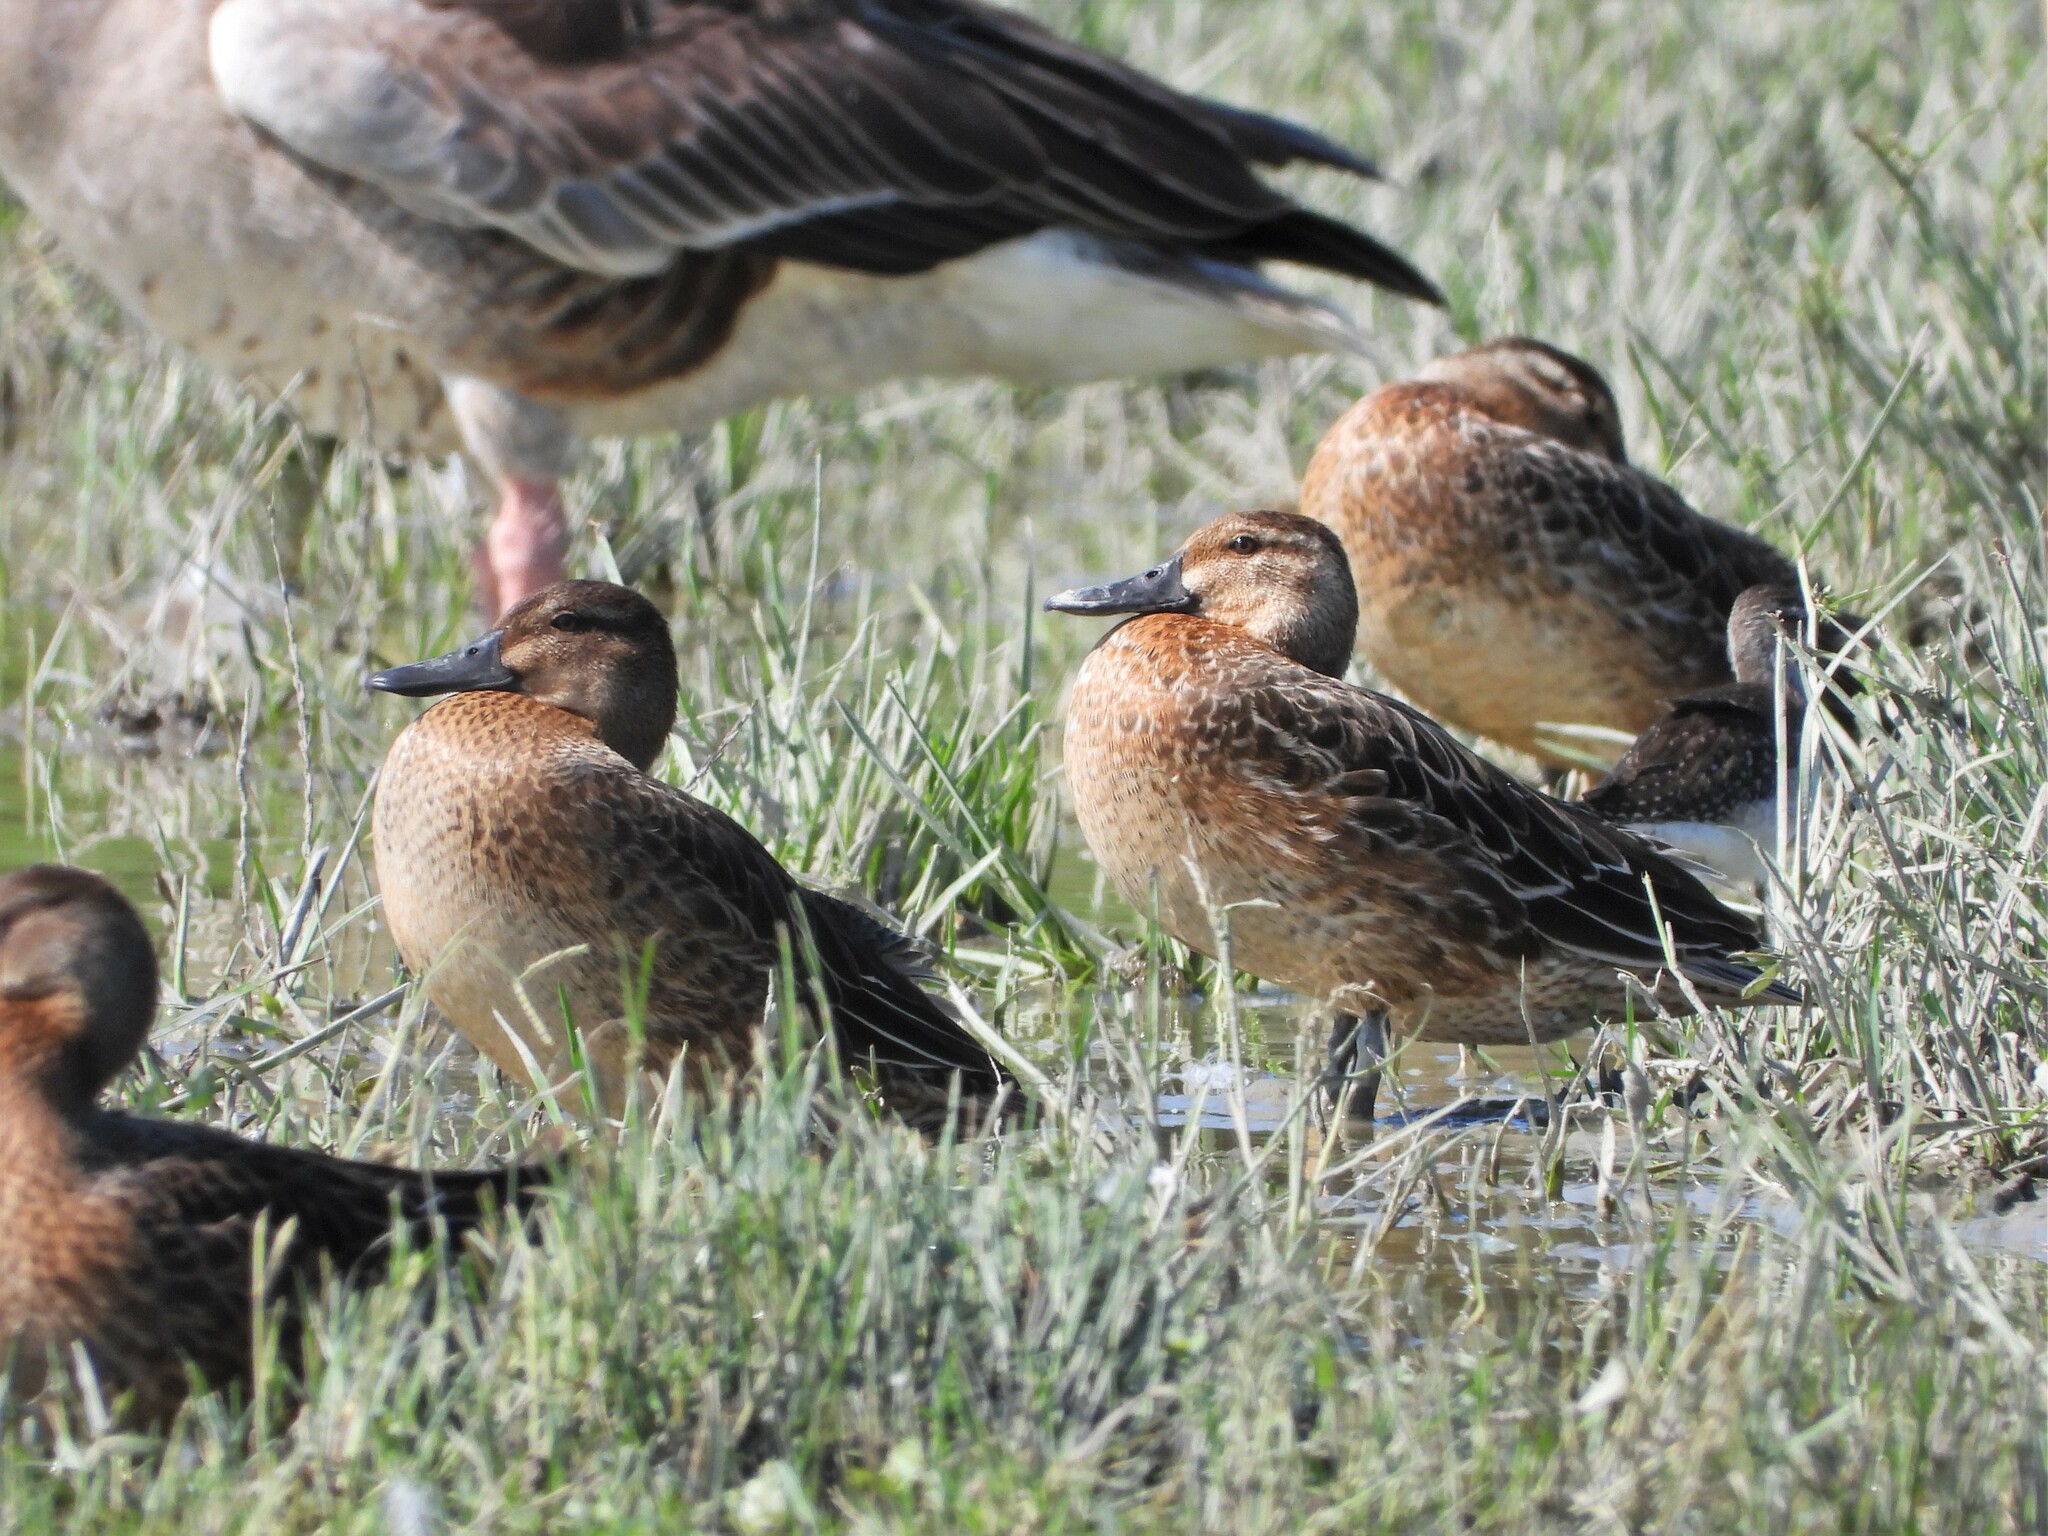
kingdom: Animalia
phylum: Chordata
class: Aves
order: Anseriformes
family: Anatidae
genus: Spatula
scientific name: Spatula querquedula
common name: Garganey
